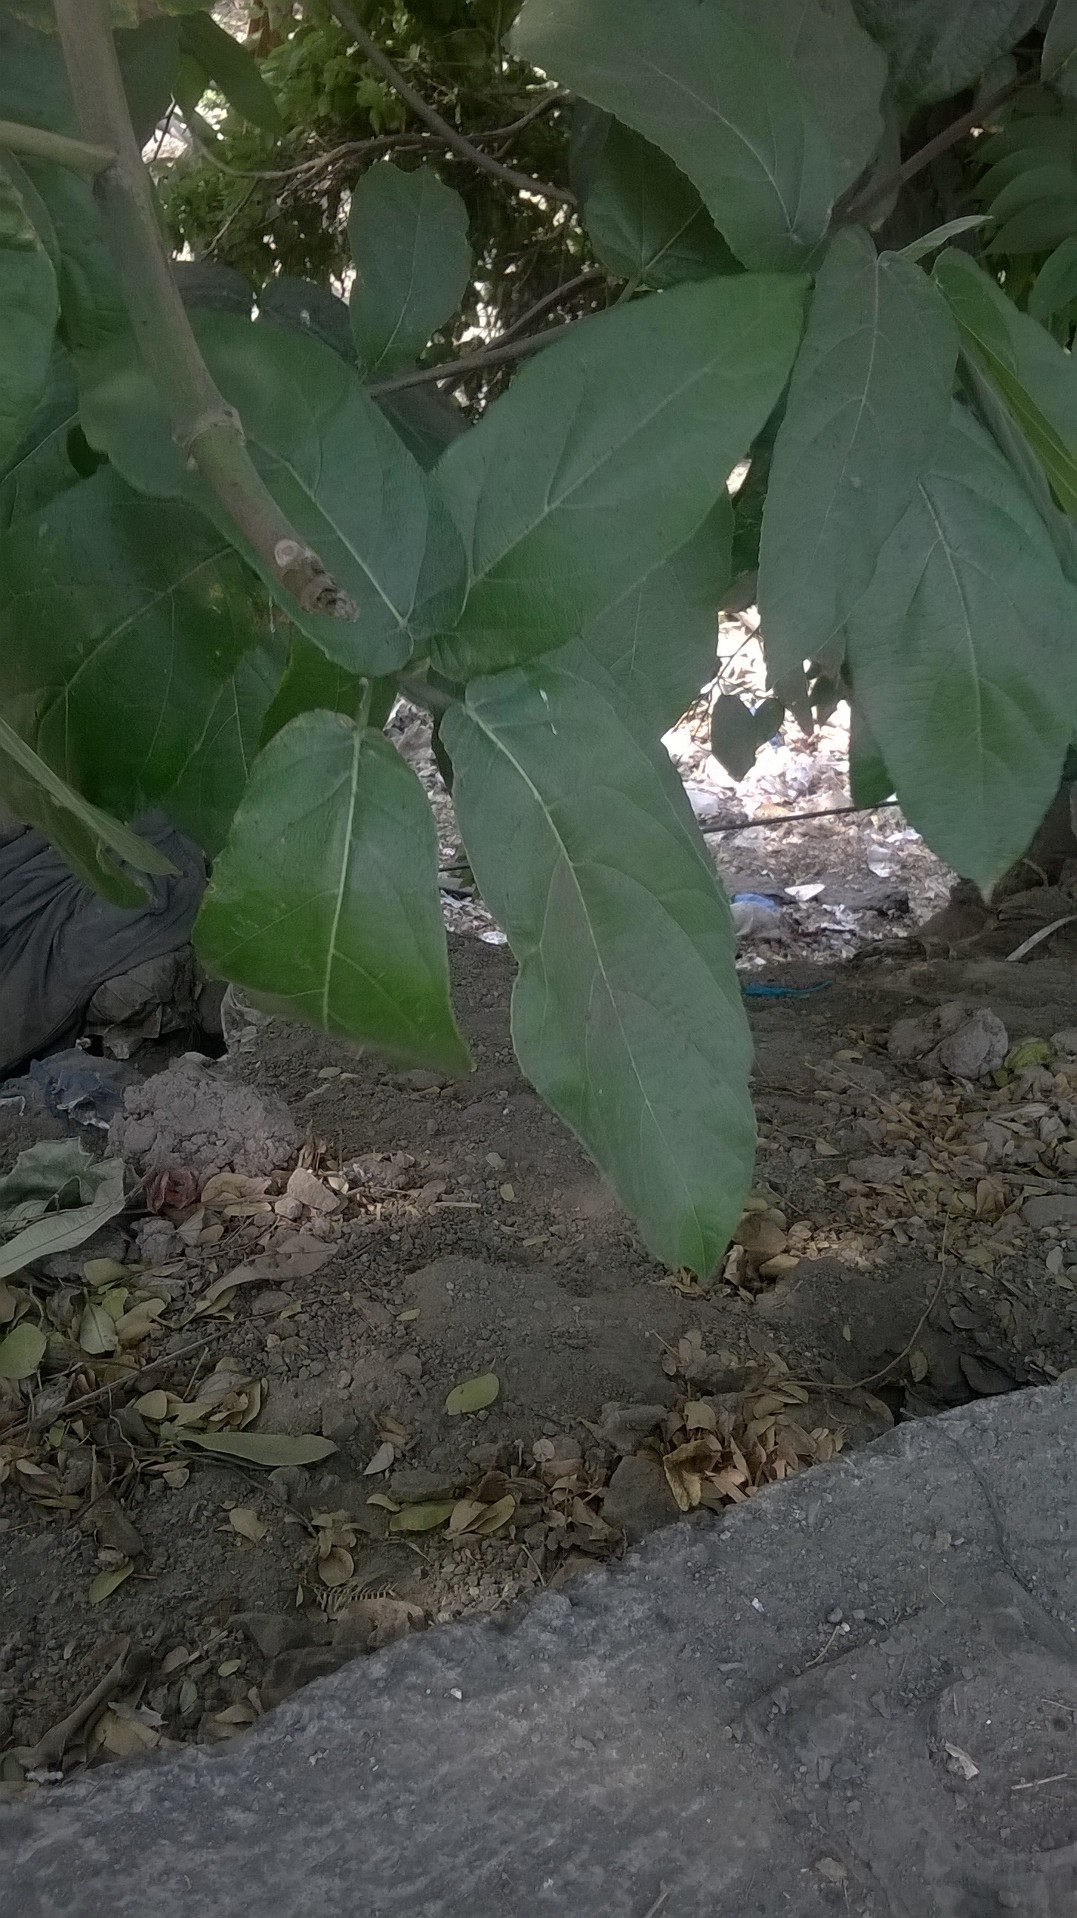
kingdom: Plantae
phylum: Tracheophyta
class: Magnoliopsida
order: Rosales
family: Moraceae
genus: Ficus
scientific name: Ficus hispida
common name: Hairy fig
